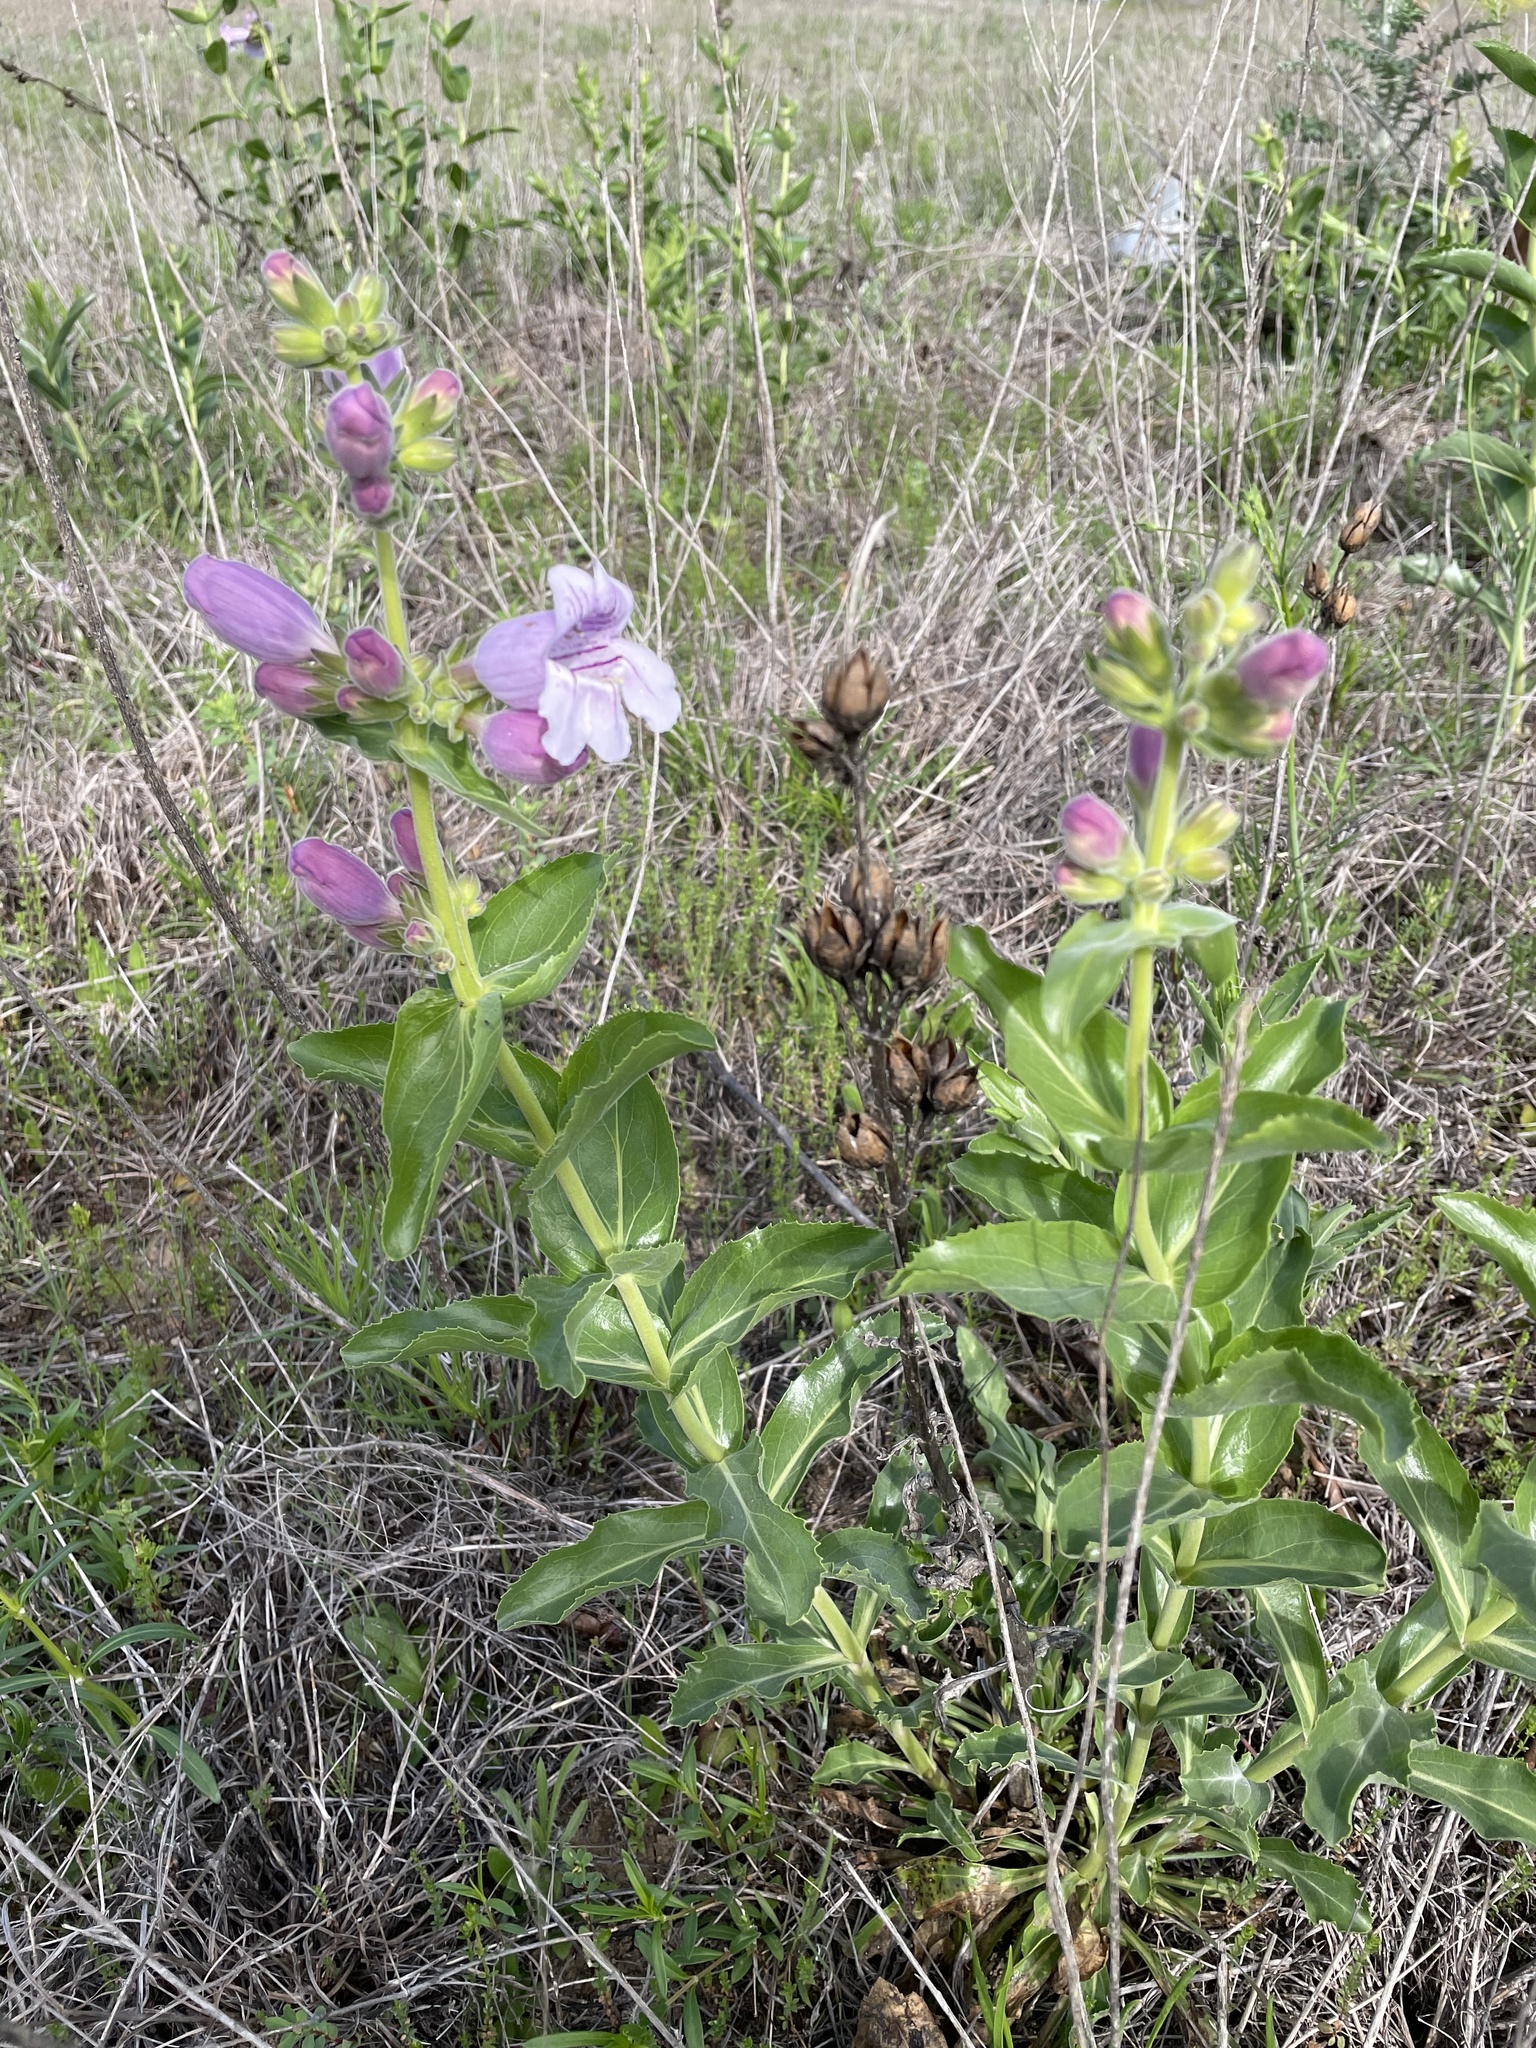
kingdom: Plantae
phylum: Tracheophyta
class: Magnoliopsida
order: Lamiales
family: Plantaginaceae
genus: Penstemon
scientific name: Penstemon cobaea
